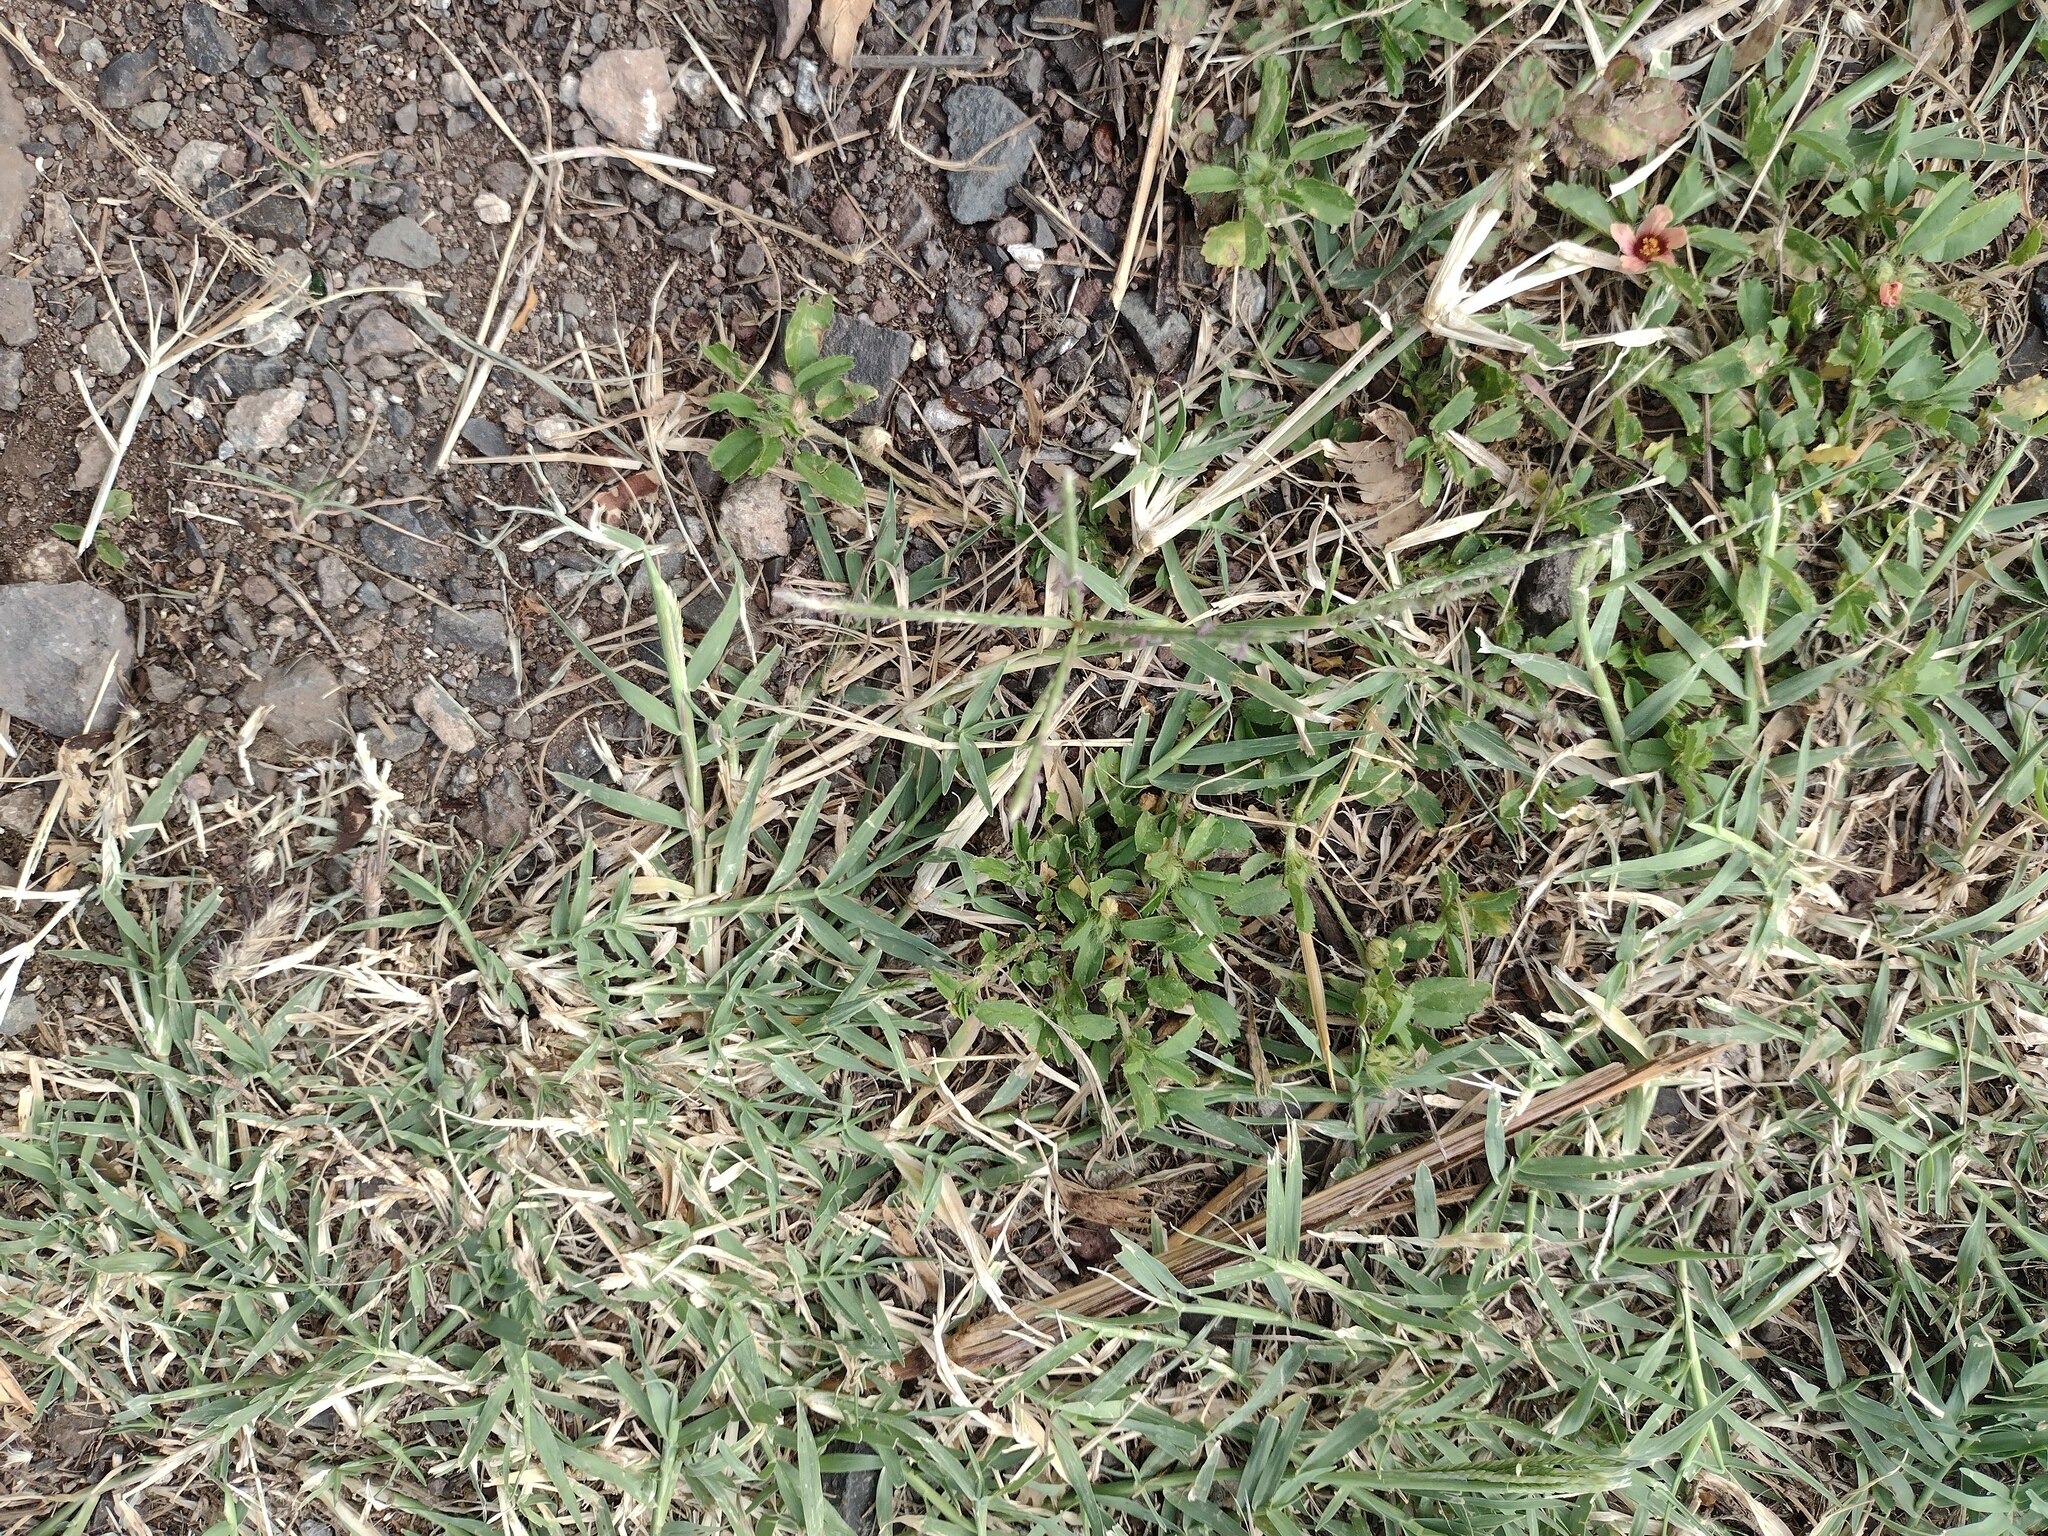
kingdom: Plantae
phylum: Tracheophyta
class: Liliopsida
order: Poales
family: Poaceae
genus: Cynodon
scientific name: Cynodon dactylon
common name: Bermuda grass
